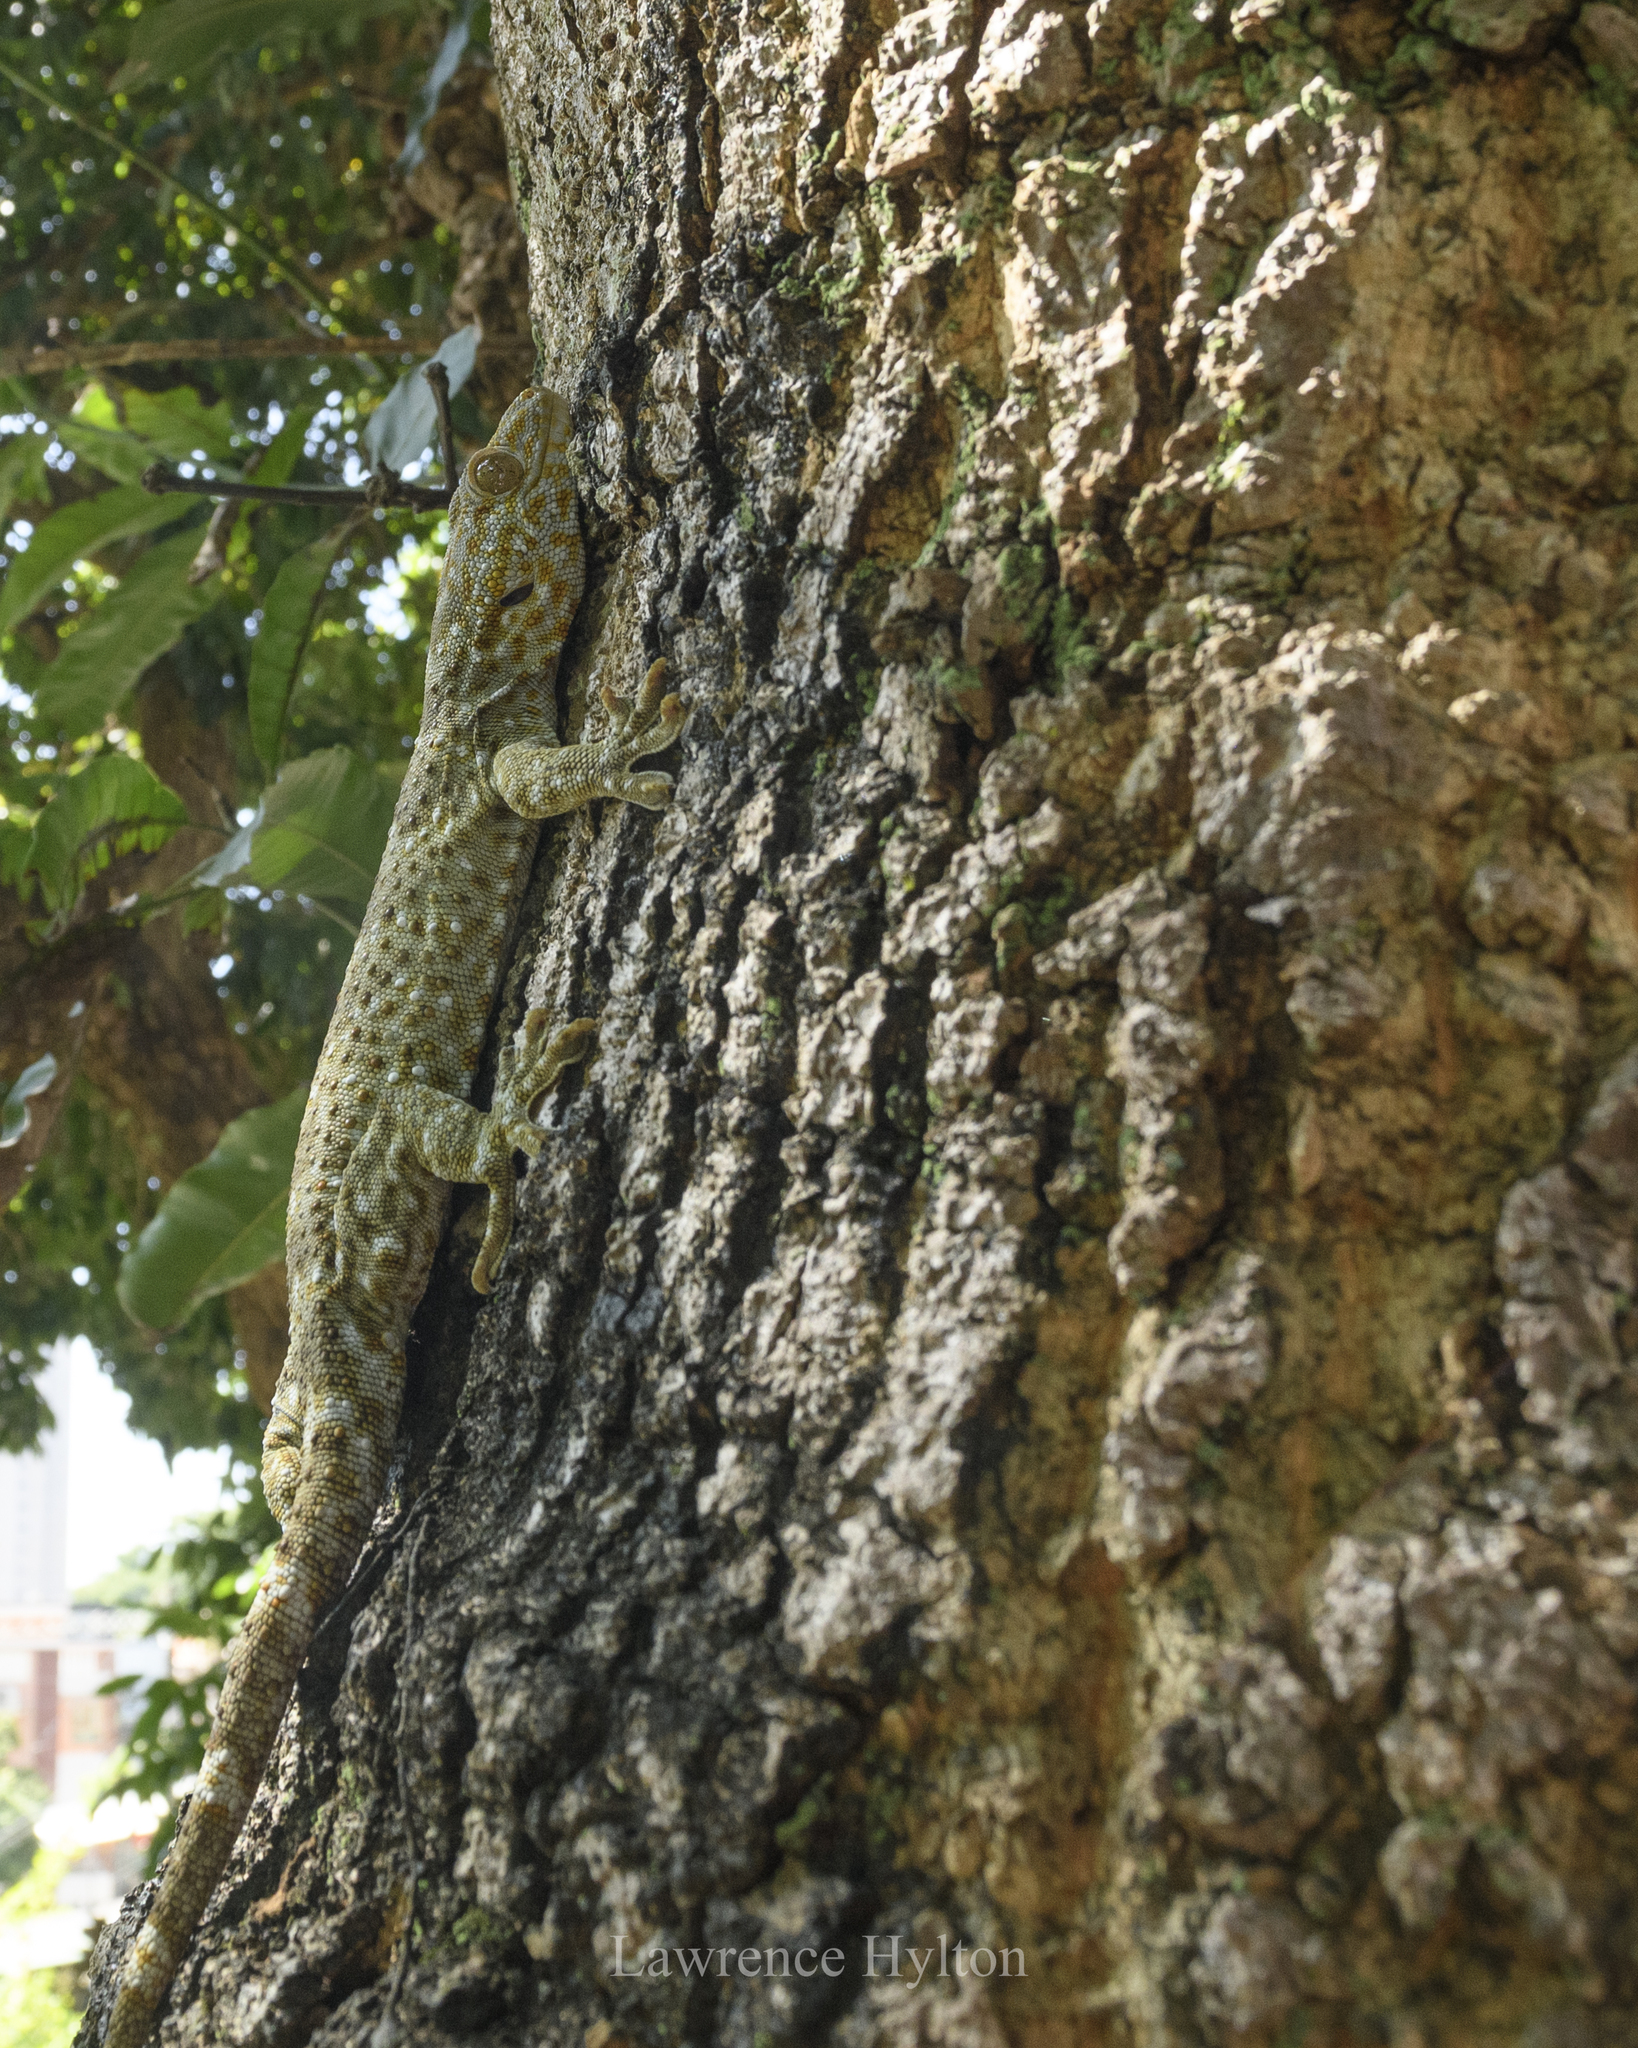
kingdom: Animalia
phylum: Chordata
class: Squamata
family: Gekkonidae
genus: Gekko
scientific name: Gekko reevesii
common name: Reeves’ tokay gecko
